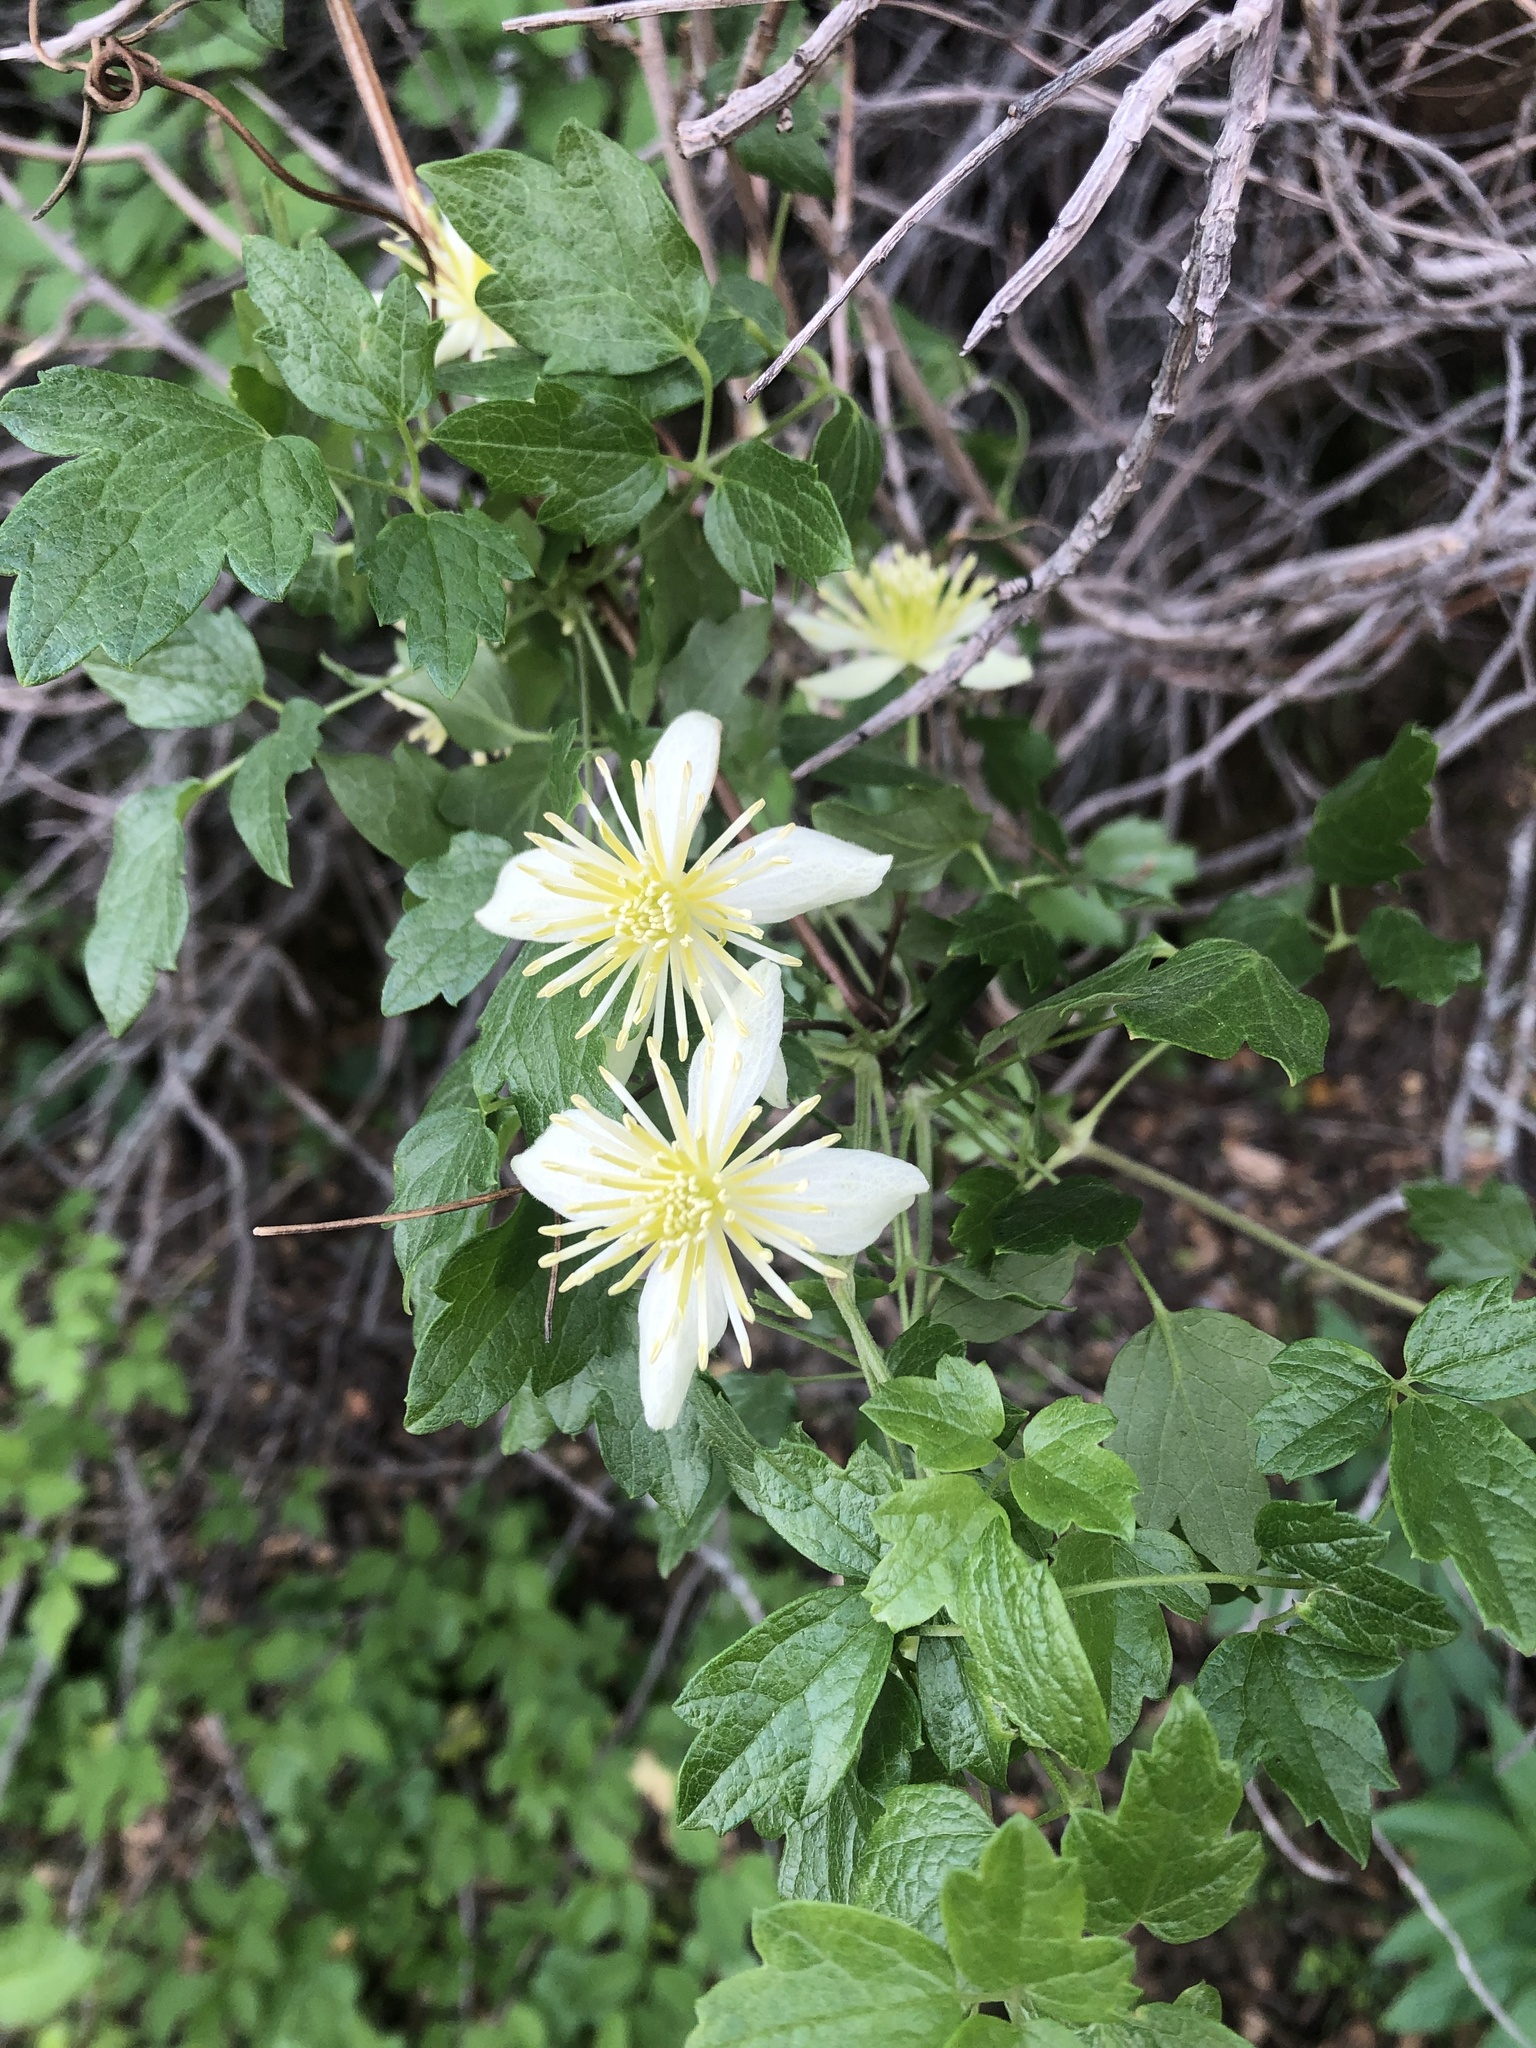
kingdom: Plantae
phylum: Tracheophyta
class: Magnoliopsida
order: Ranunculales
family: Ranunculaceae
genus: Clematis
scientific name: Clematis lasiantha
